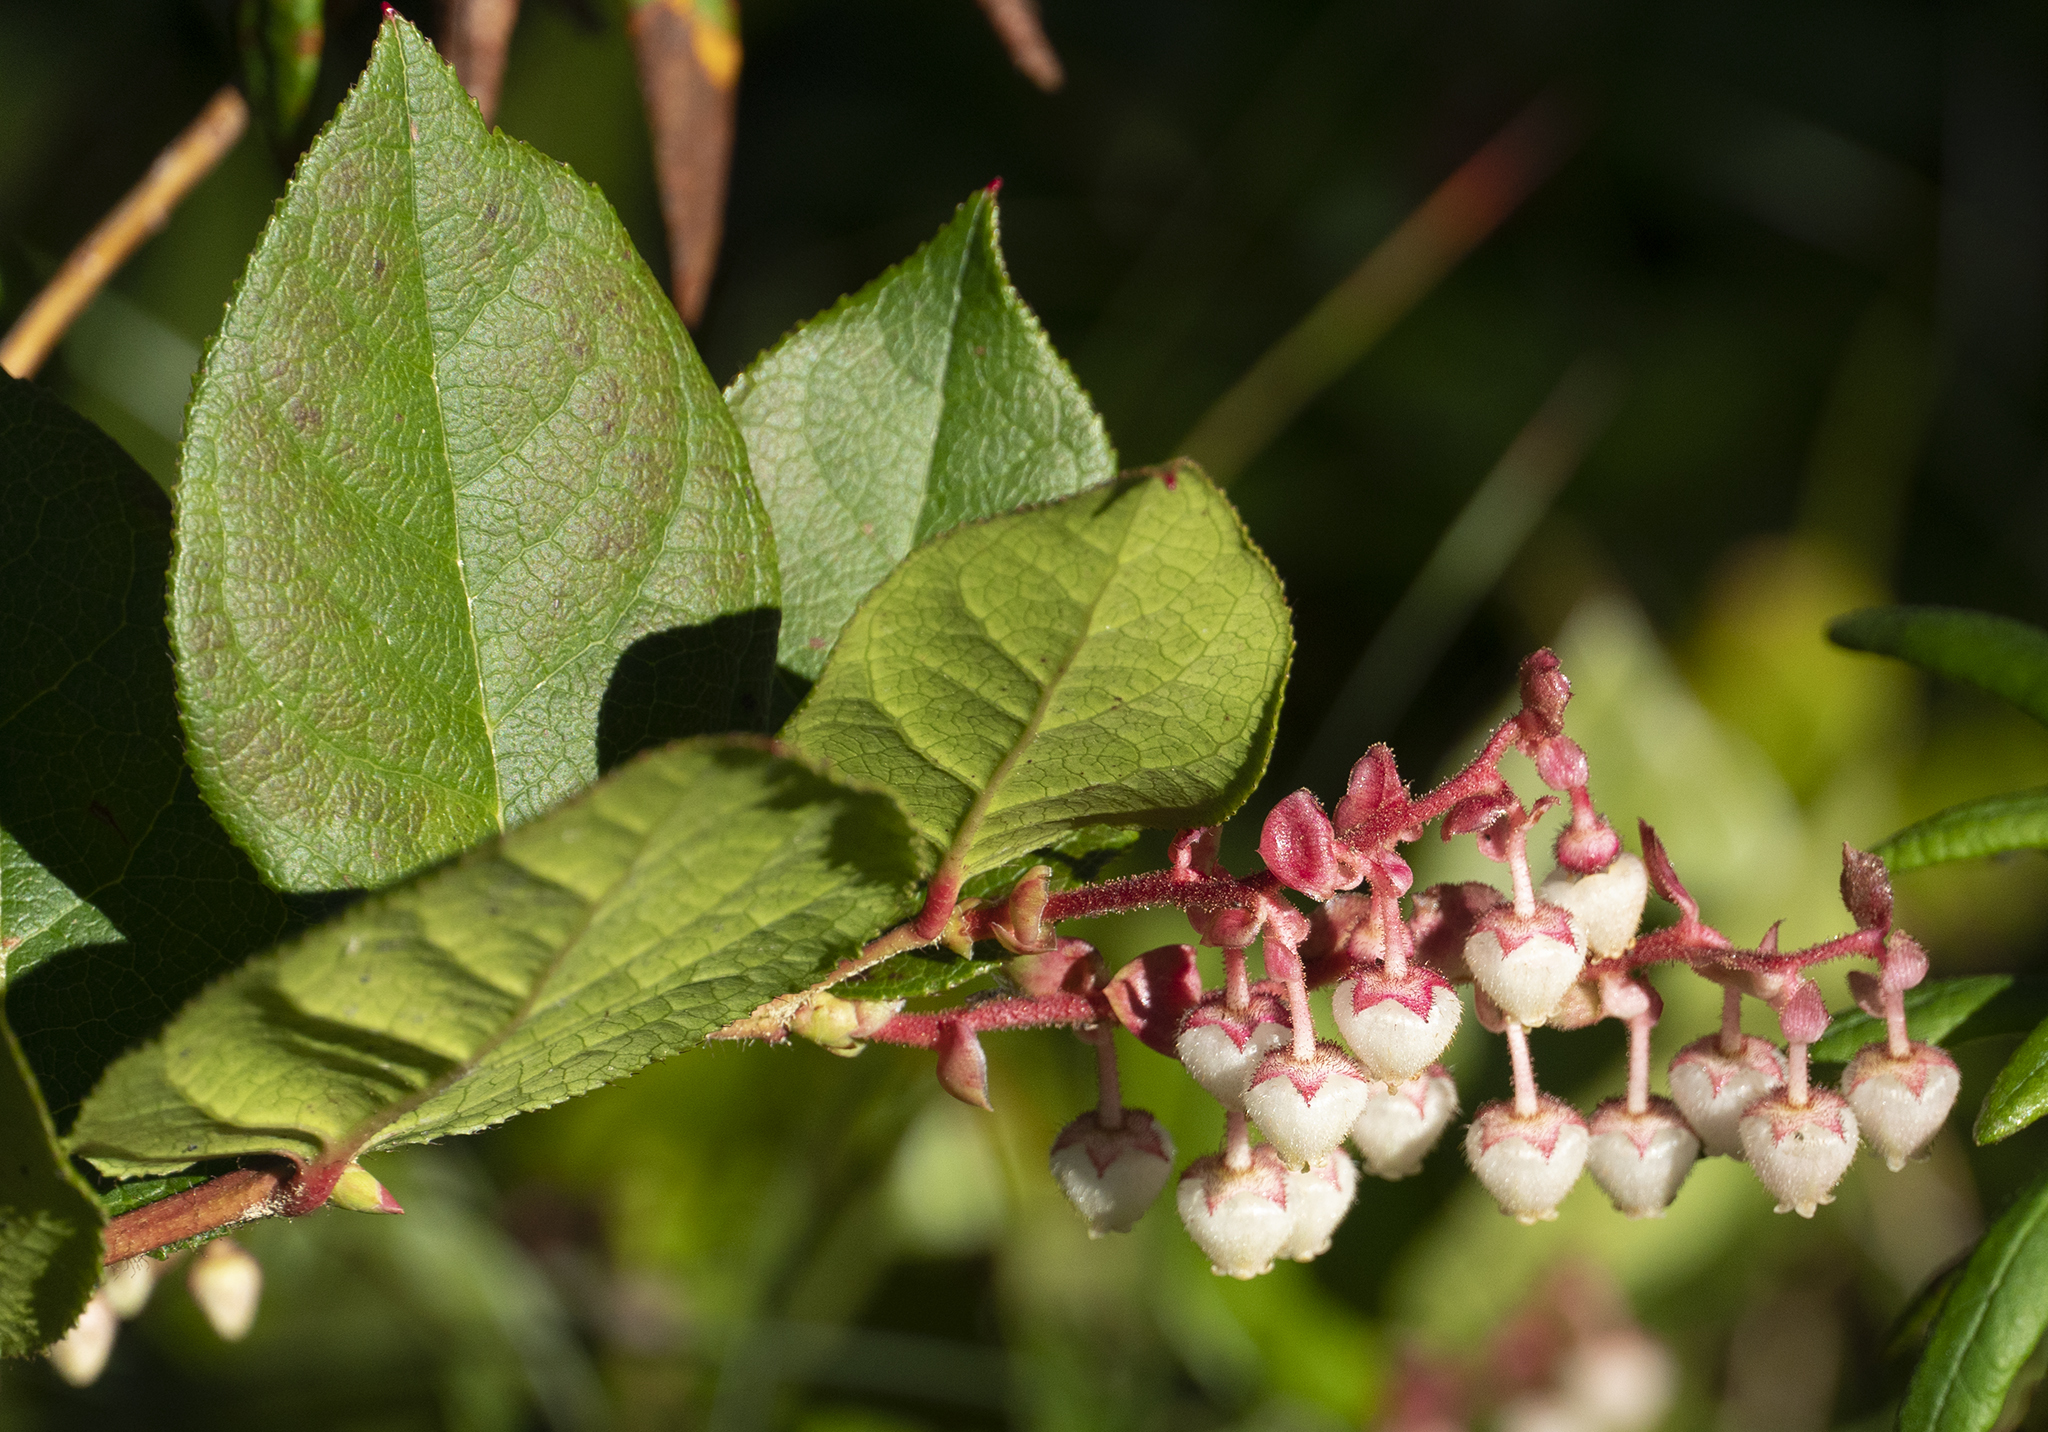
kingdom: Plantae
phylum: Tracheophyta
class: Magnoliopsida
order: Ericales
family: Ericaceae
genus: Gaultheria
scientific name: Gaultheria shallon
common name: Shallon
